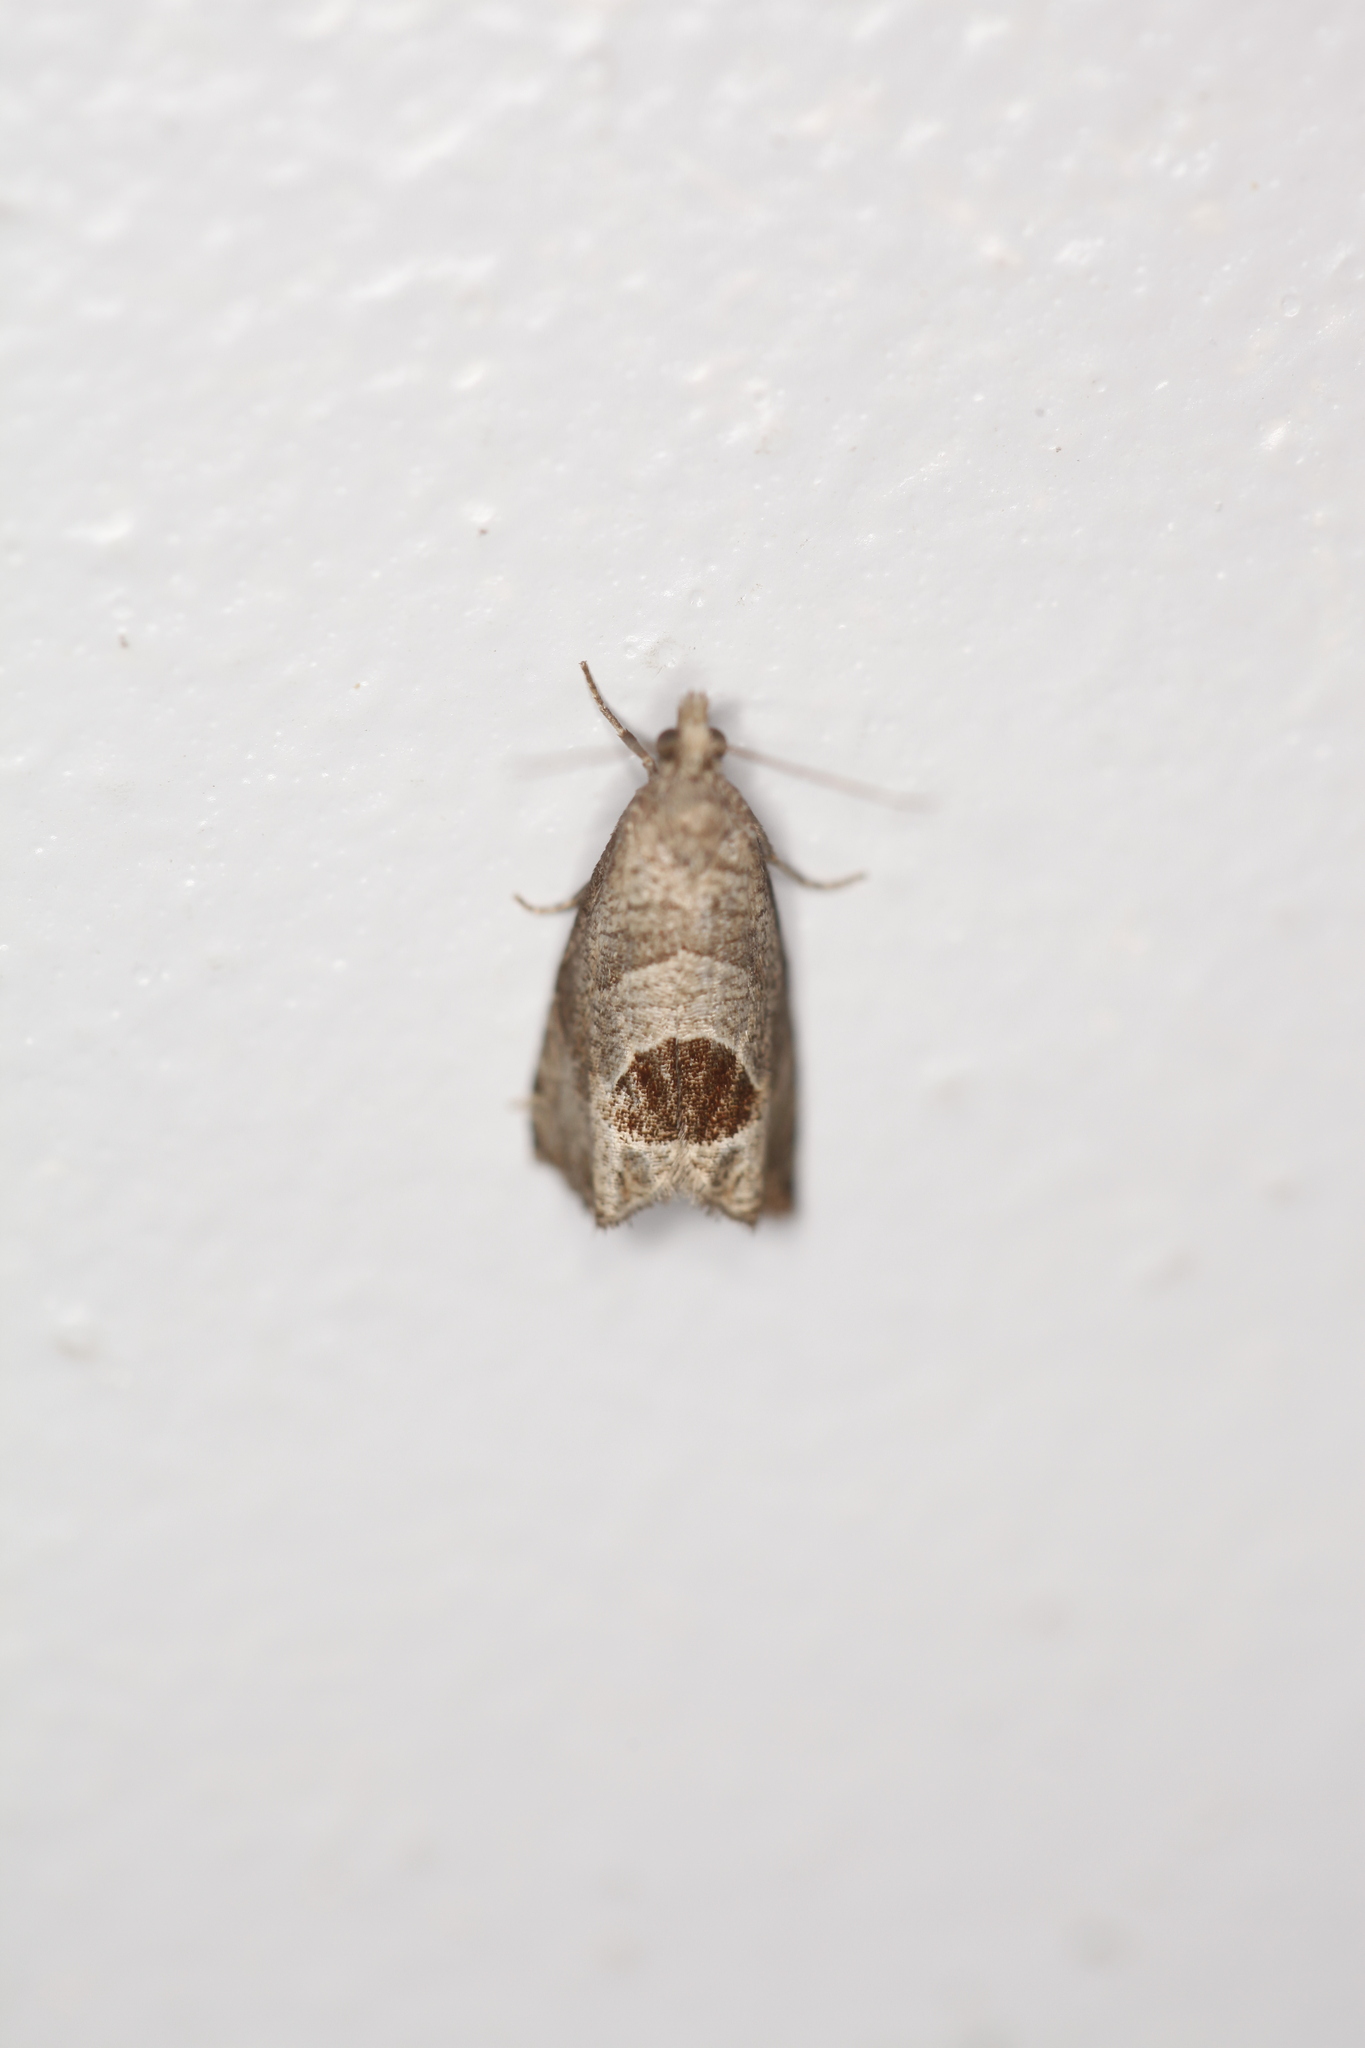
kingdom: Animalia
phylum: Arthropoda
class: Insecta
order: Lepidoptera
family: Tortricidae
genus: Notocelia
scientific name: Notocelia uddmanniana
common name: Bramble shoot moth
